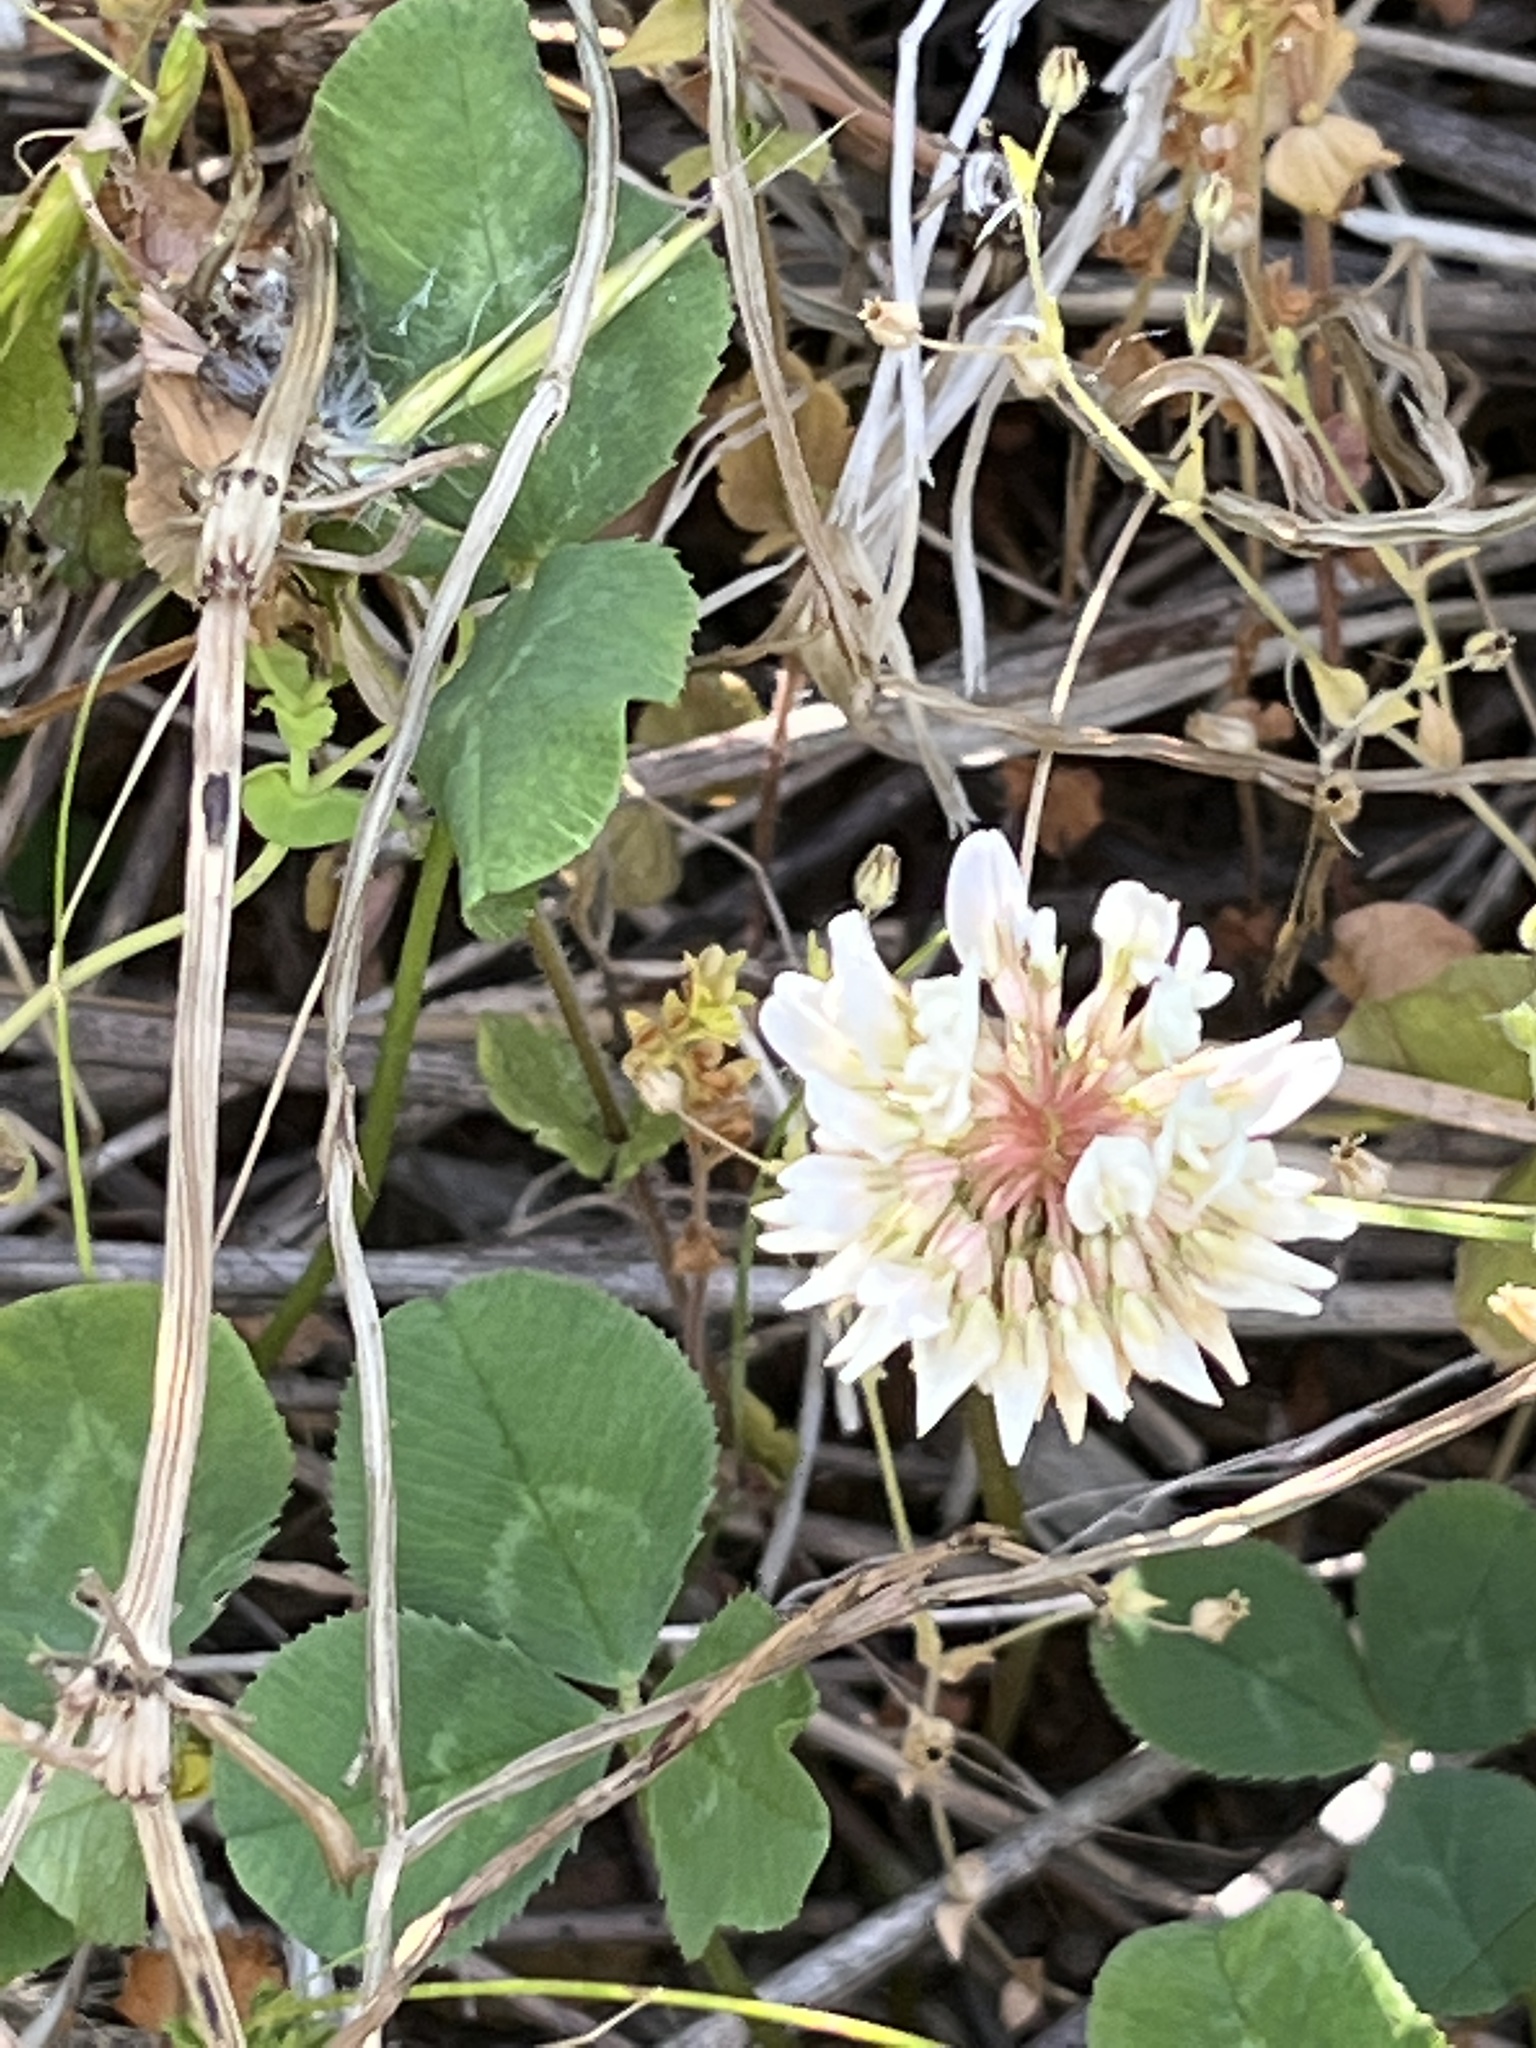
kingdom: Plantae
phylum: Tracheophyta
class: Magnoliopsida
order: Fabales
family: Fabaceae
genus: Trifolium
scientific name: Trifolium repens
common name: White clover
